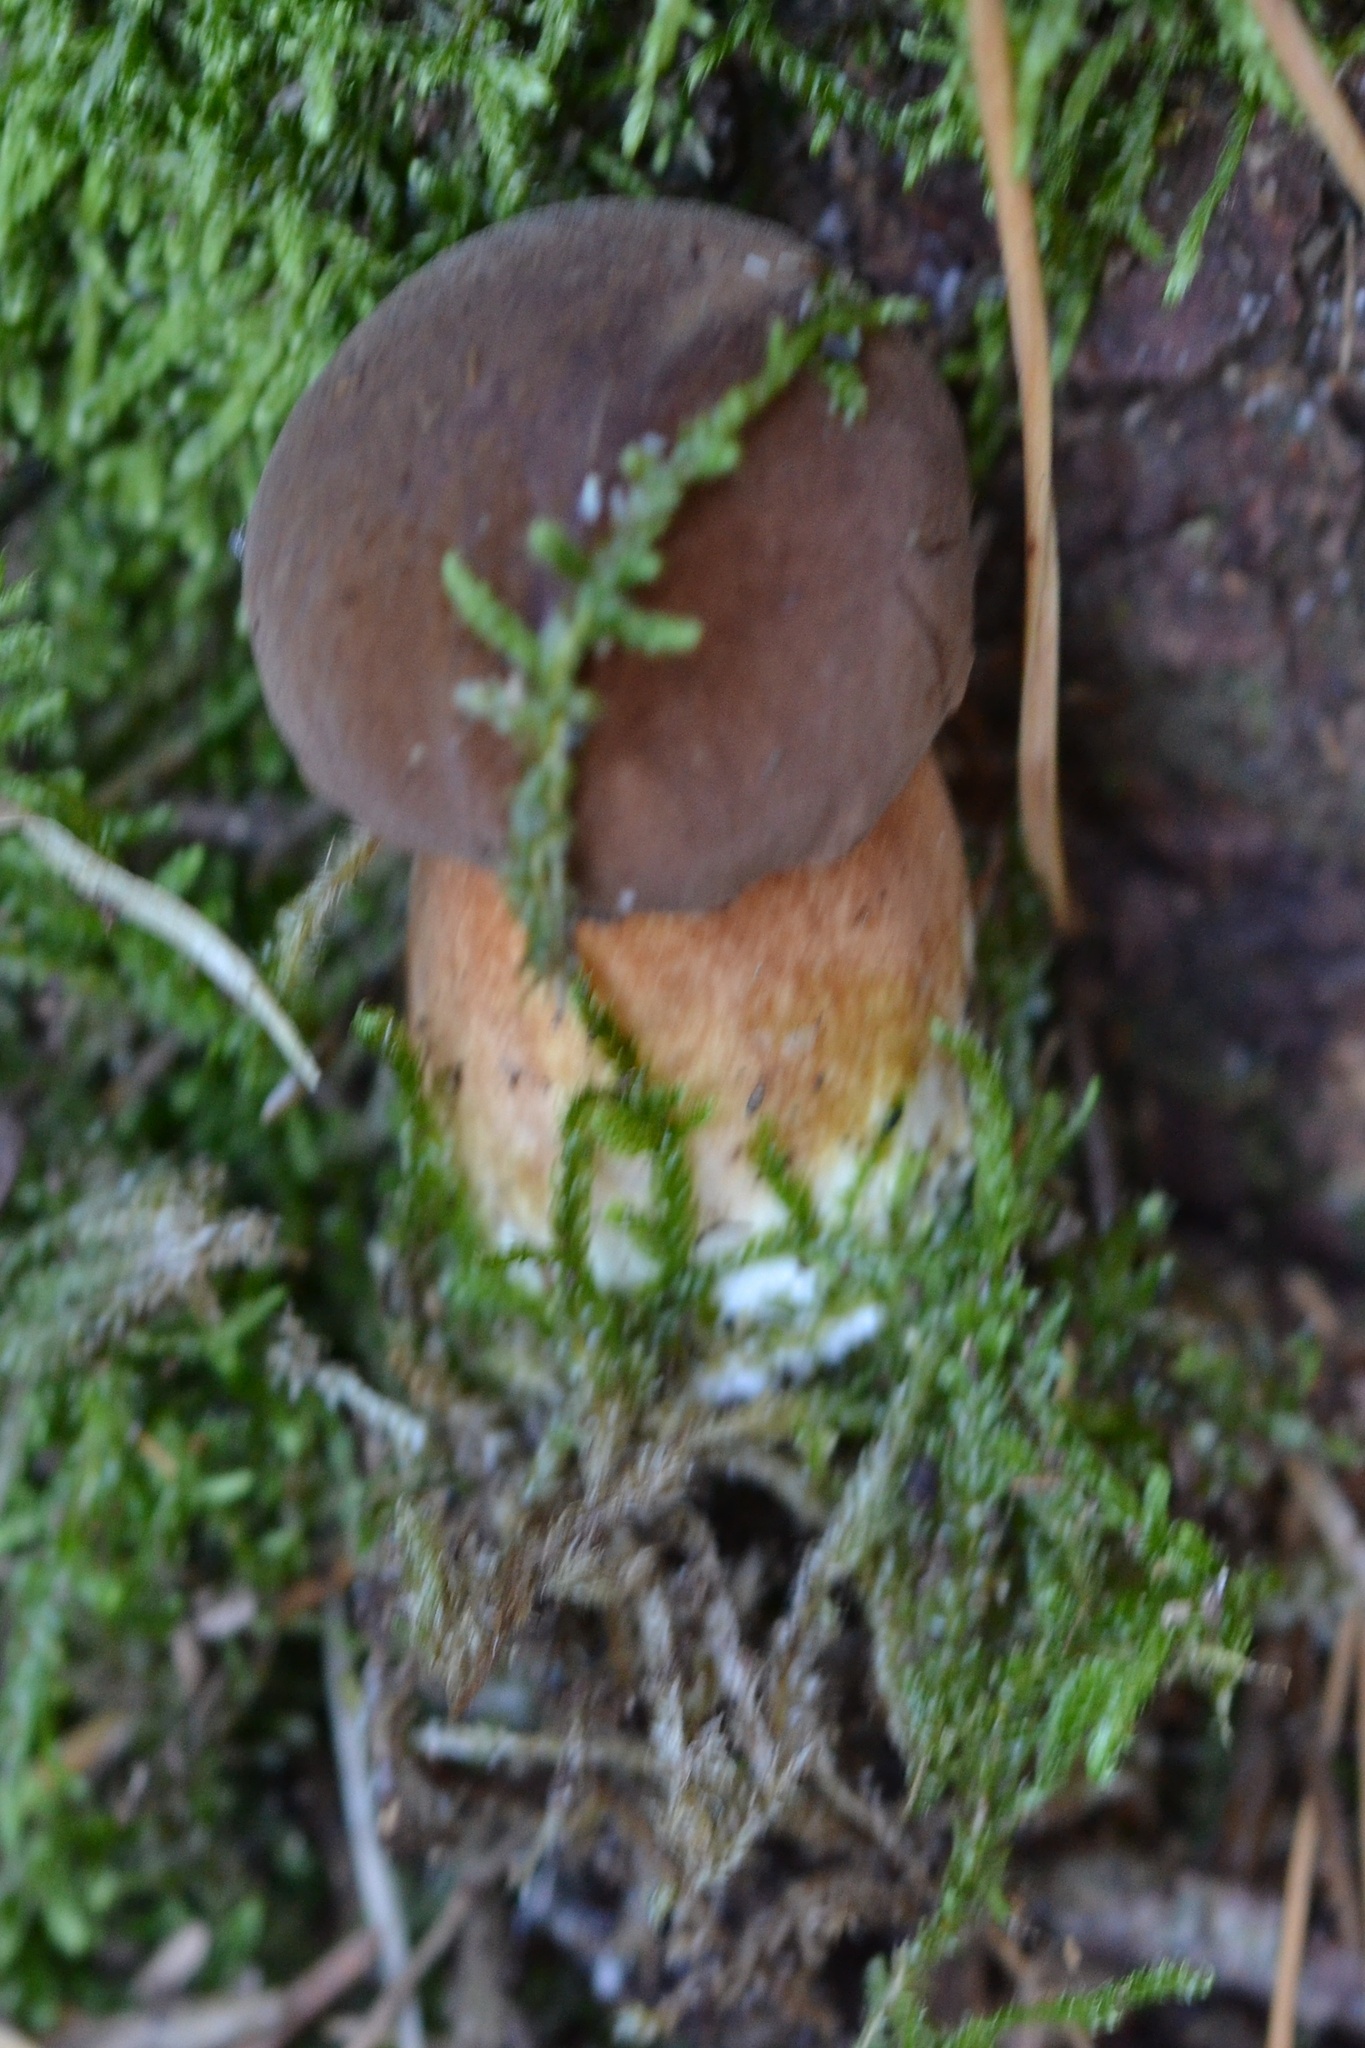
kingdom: Fungi
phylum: Basidiomycota
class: Agaricomycetes
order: Boletales
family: Boletaceae
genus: Imleria
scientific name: Imleria badia
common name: Bay bolete
